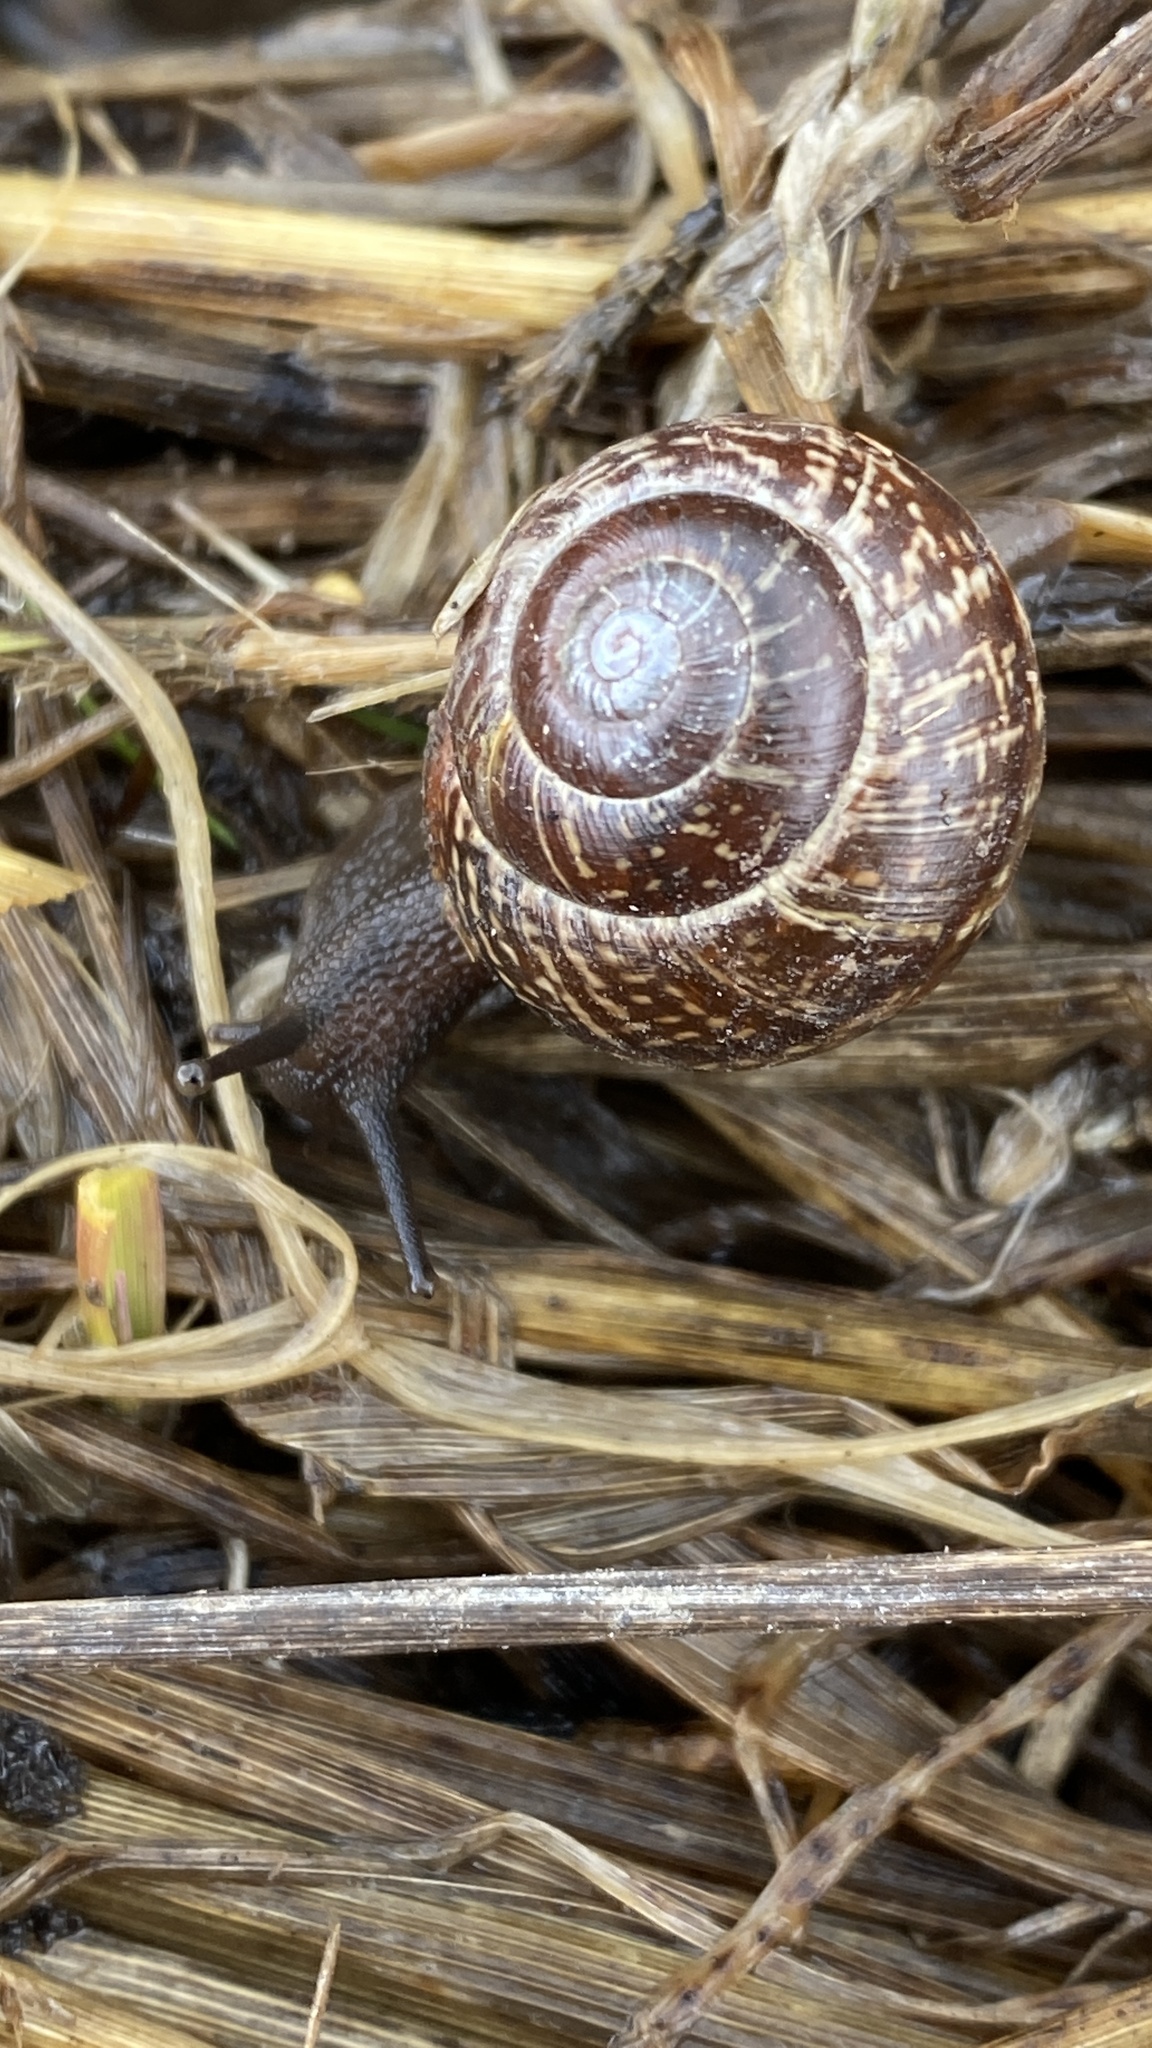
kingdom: Animalia
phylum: Mollusca
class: Gastropoda
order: Stylommatophora
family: Helicidae
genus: Arianta
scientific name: Arianta arbustorum
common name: Copse snail
